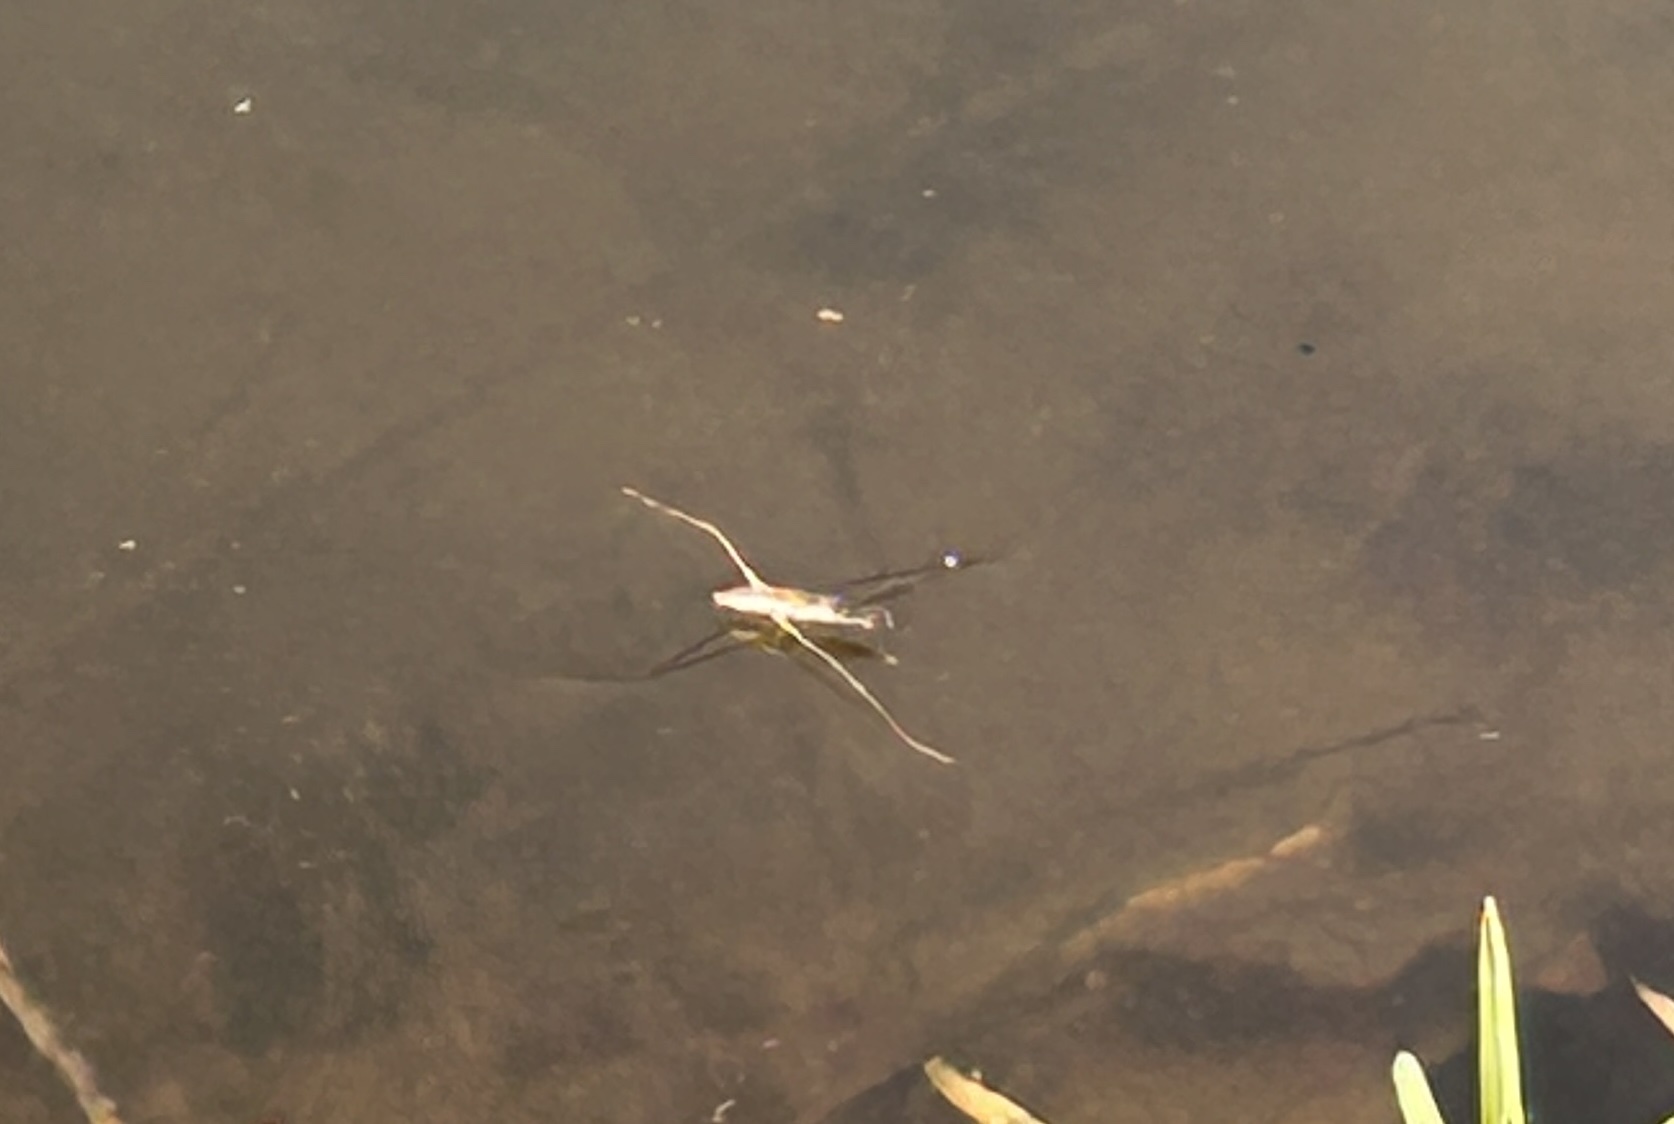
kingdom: Animalia
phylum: Arthropoda
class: Insecta
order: Hemiptera
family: Gerridae
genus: Aquarius
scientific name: Aquarius adelaidis
